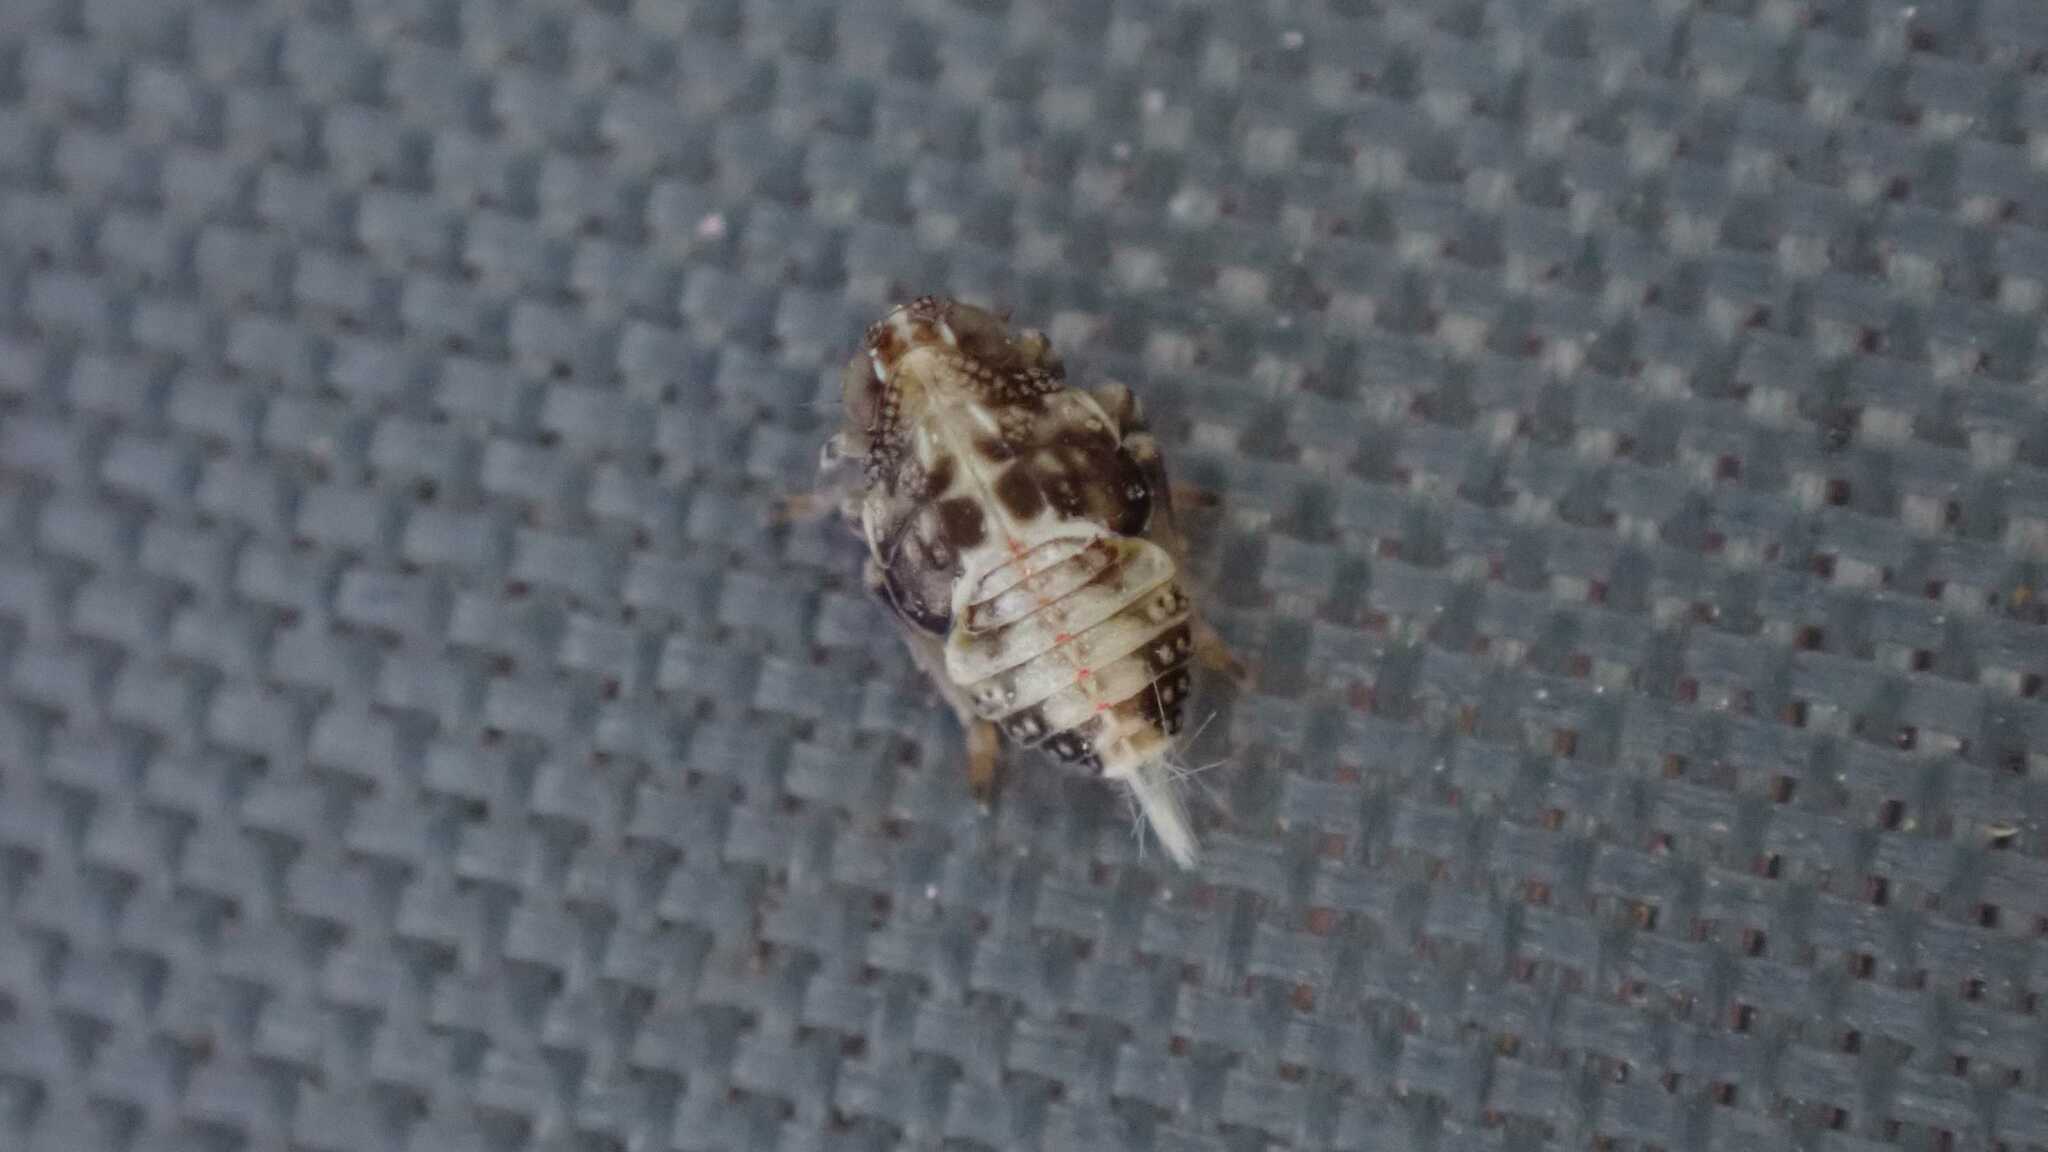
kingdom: Animalia
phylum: Arthropoda
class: Insecta
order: Hemiptera
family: Issidae
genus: Issus
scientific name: Issus
